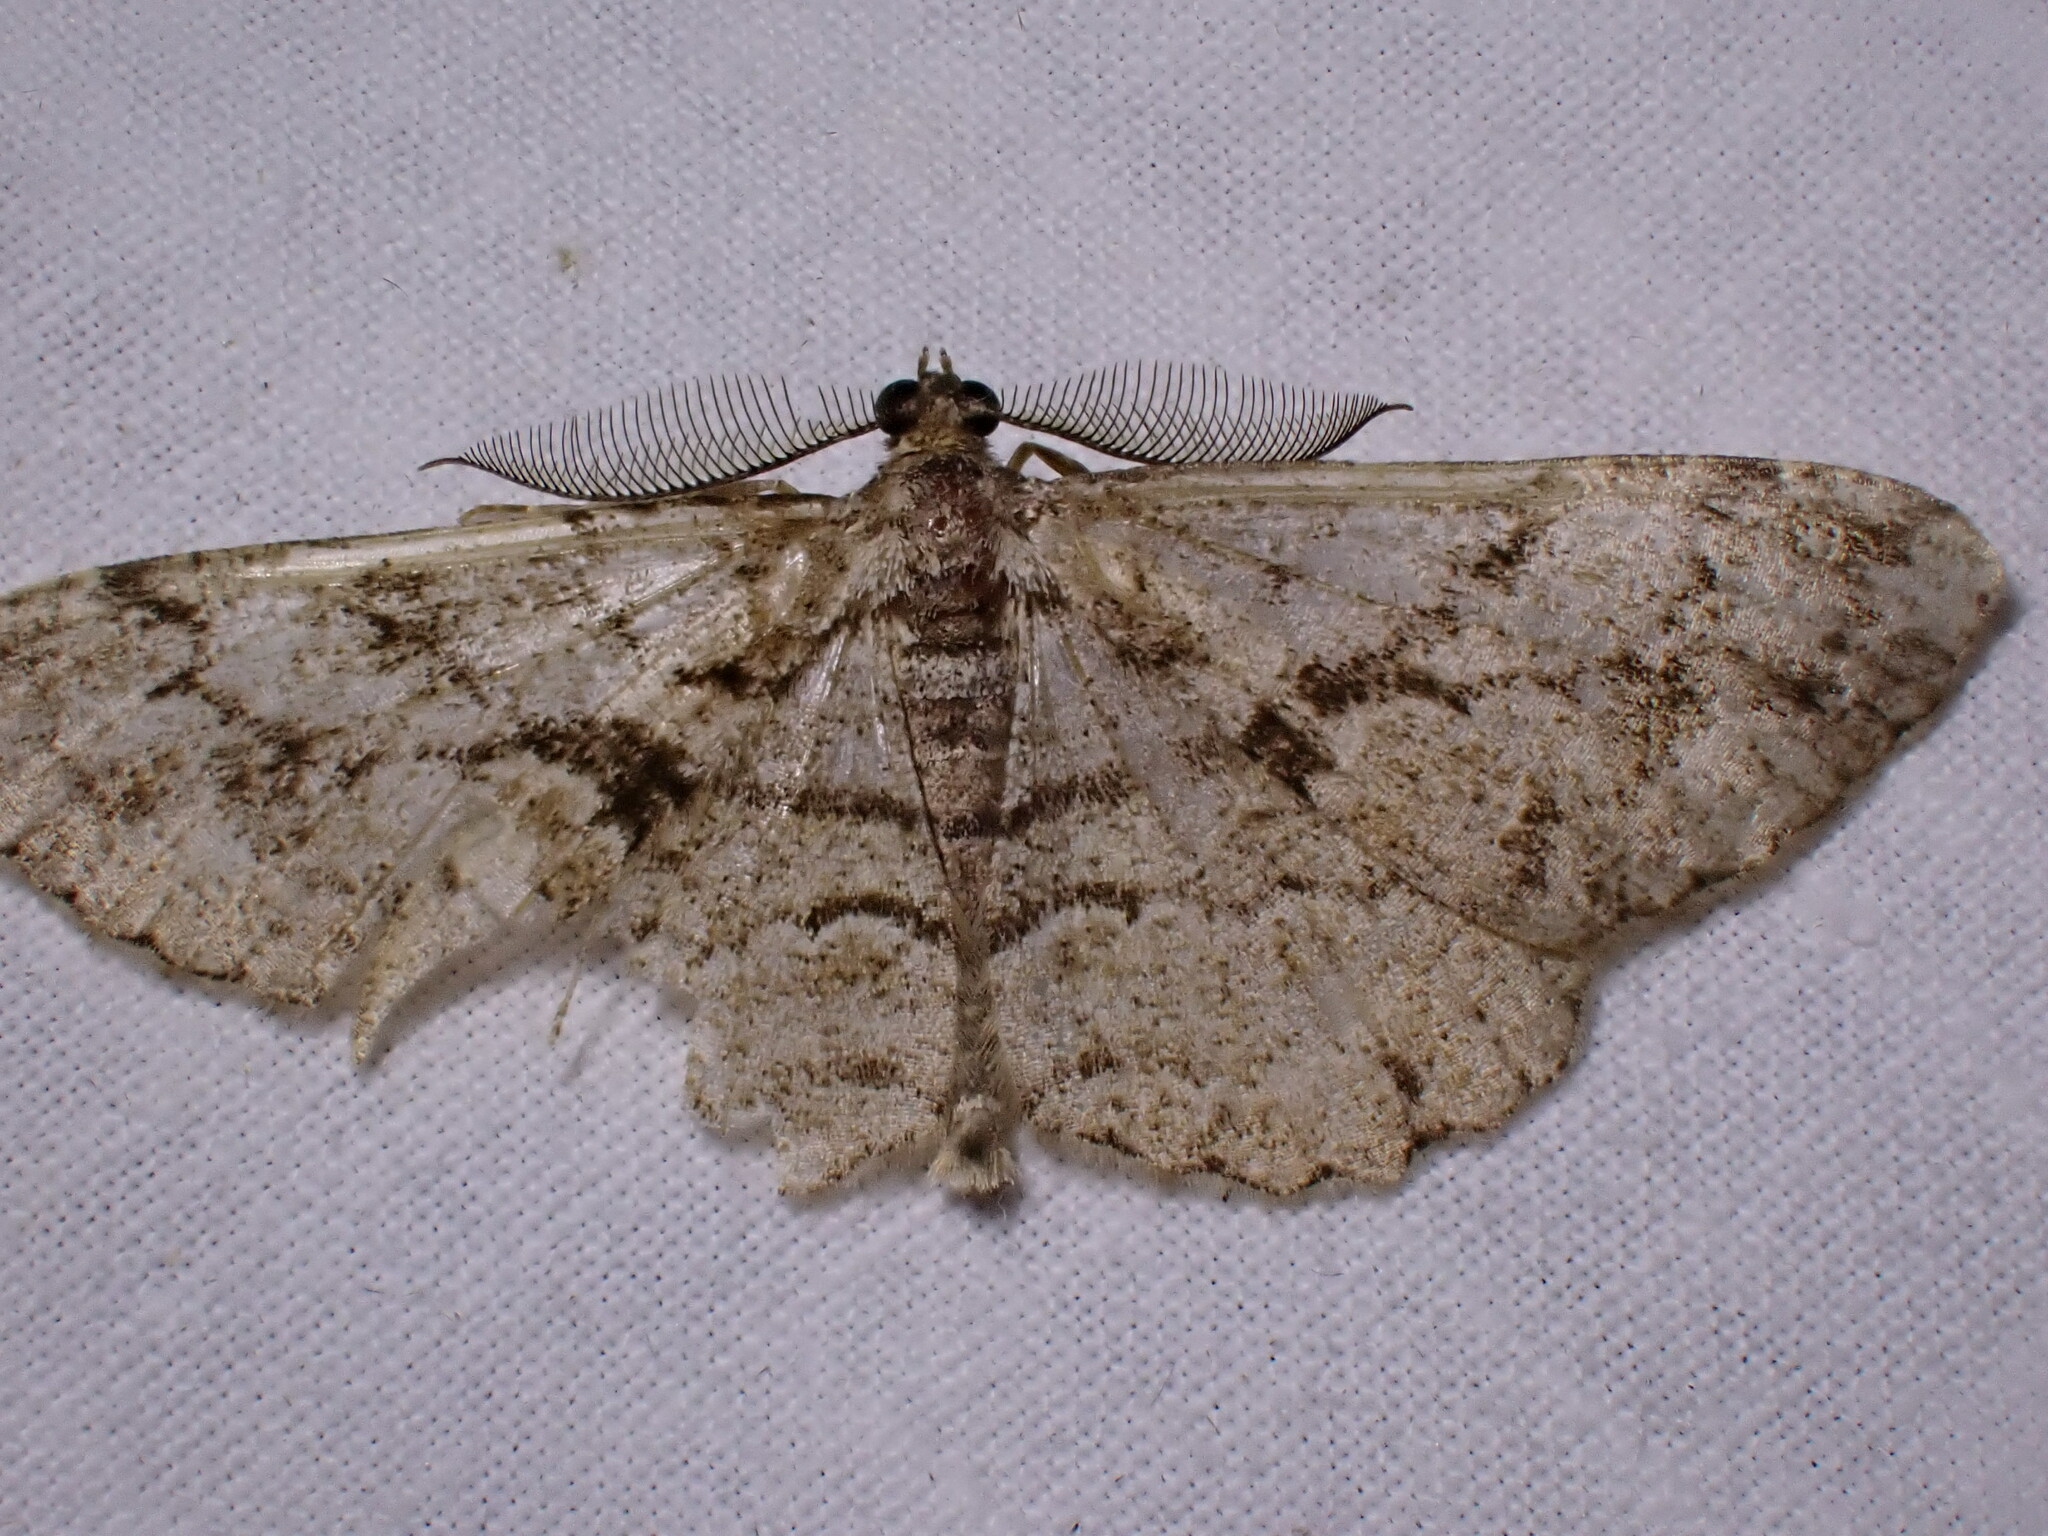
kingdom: Animalia
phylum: Arthropoda
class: Insecta
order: Lepidoptera
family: Geometridae
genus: Peribatodes
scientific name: Peribatodes secundaria
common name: Feathered beauty
